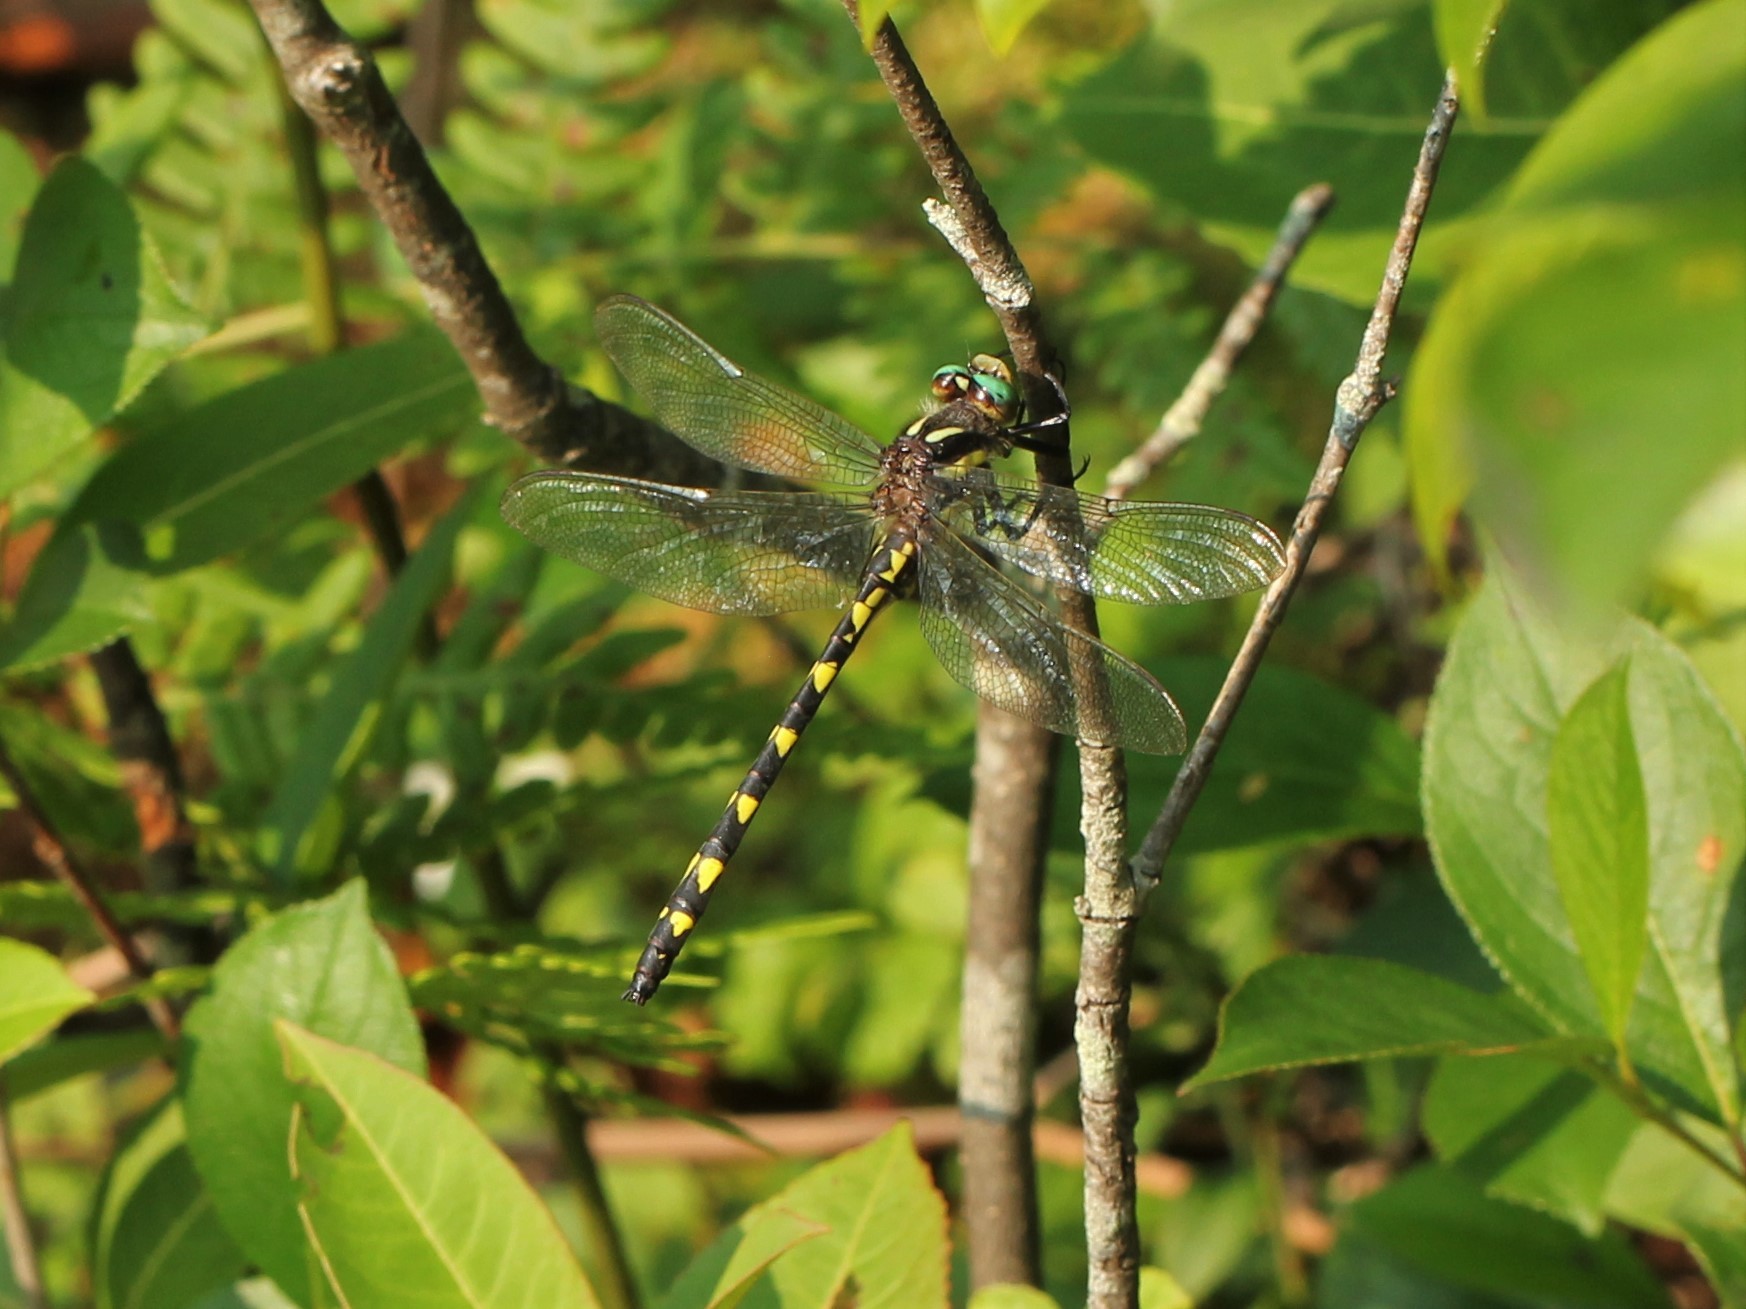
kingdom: Animalia
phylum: Arthropoda
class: Insecta
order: Odonata
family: Cordulegastridae
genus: Cordulegaster
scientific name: Cordulegaster diastatops
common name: Delta-spotted spiketail
